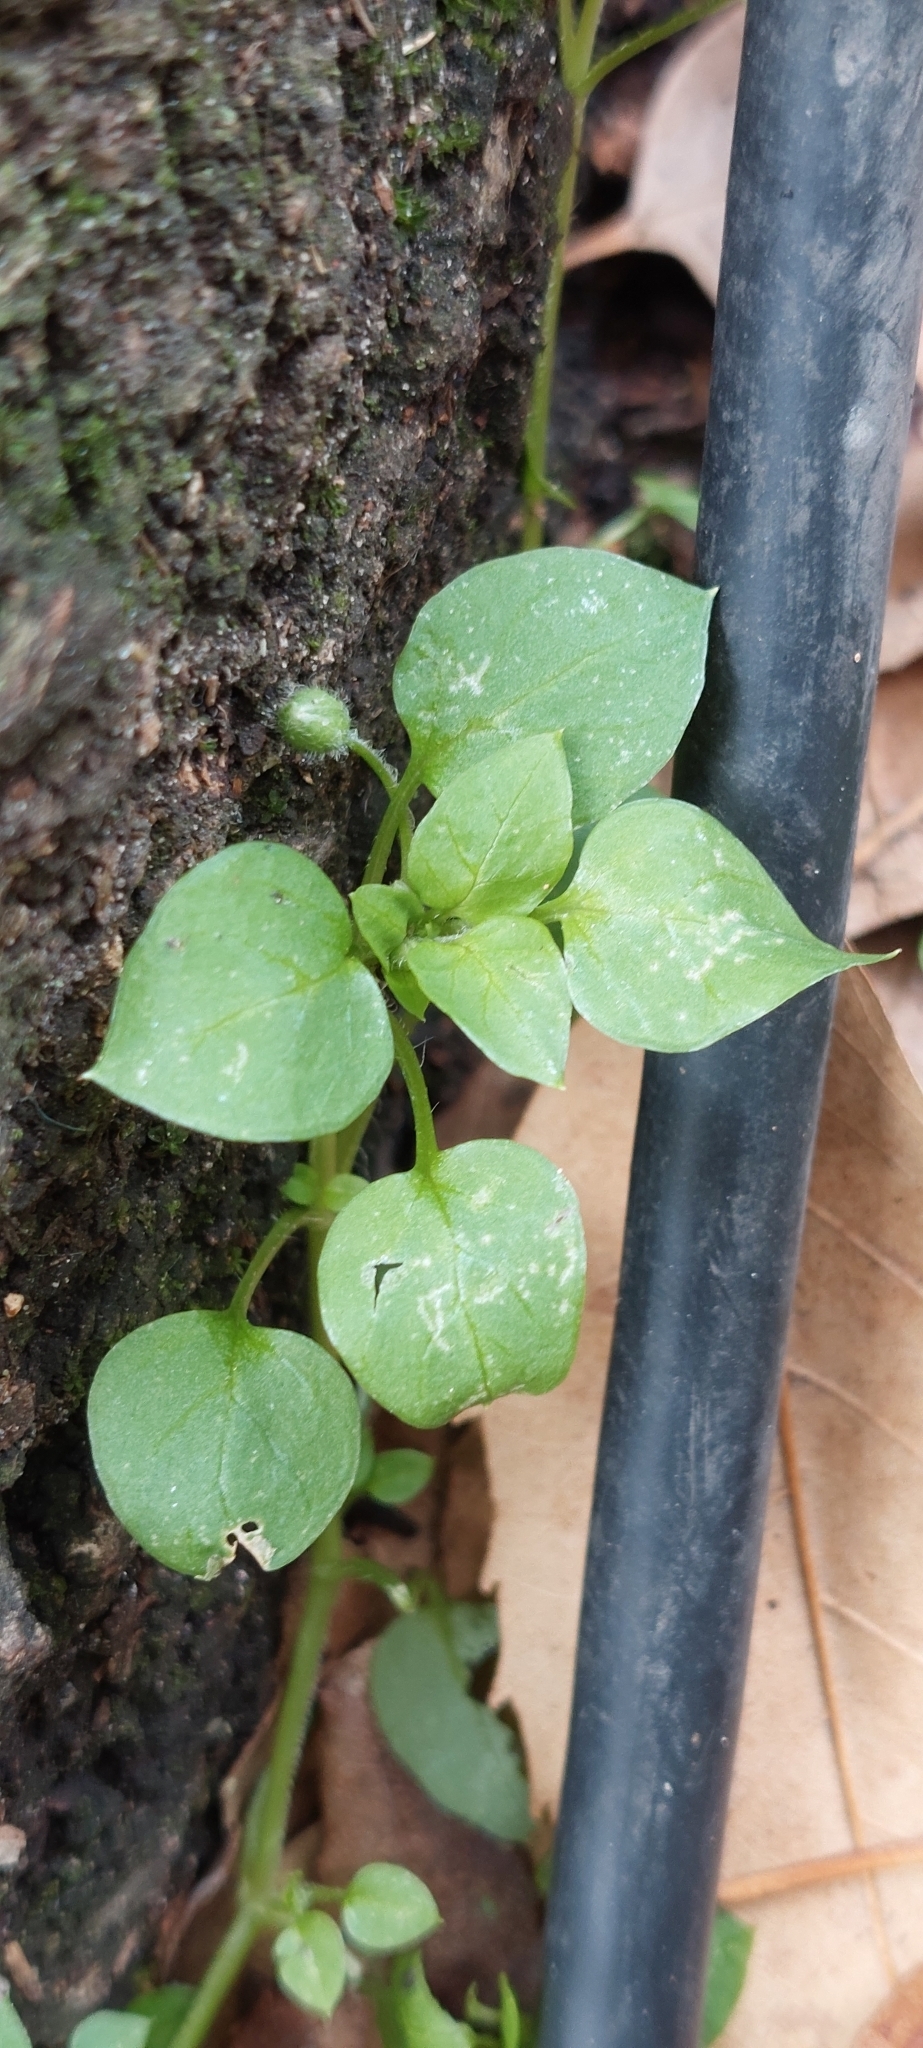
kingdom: Plantae
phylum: Tracheophyta
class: Magnoliopsida
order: Caryophyllales
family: Caryophyllaceae
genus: Stellaria
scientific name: Stellaria media
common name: Common chickweed
